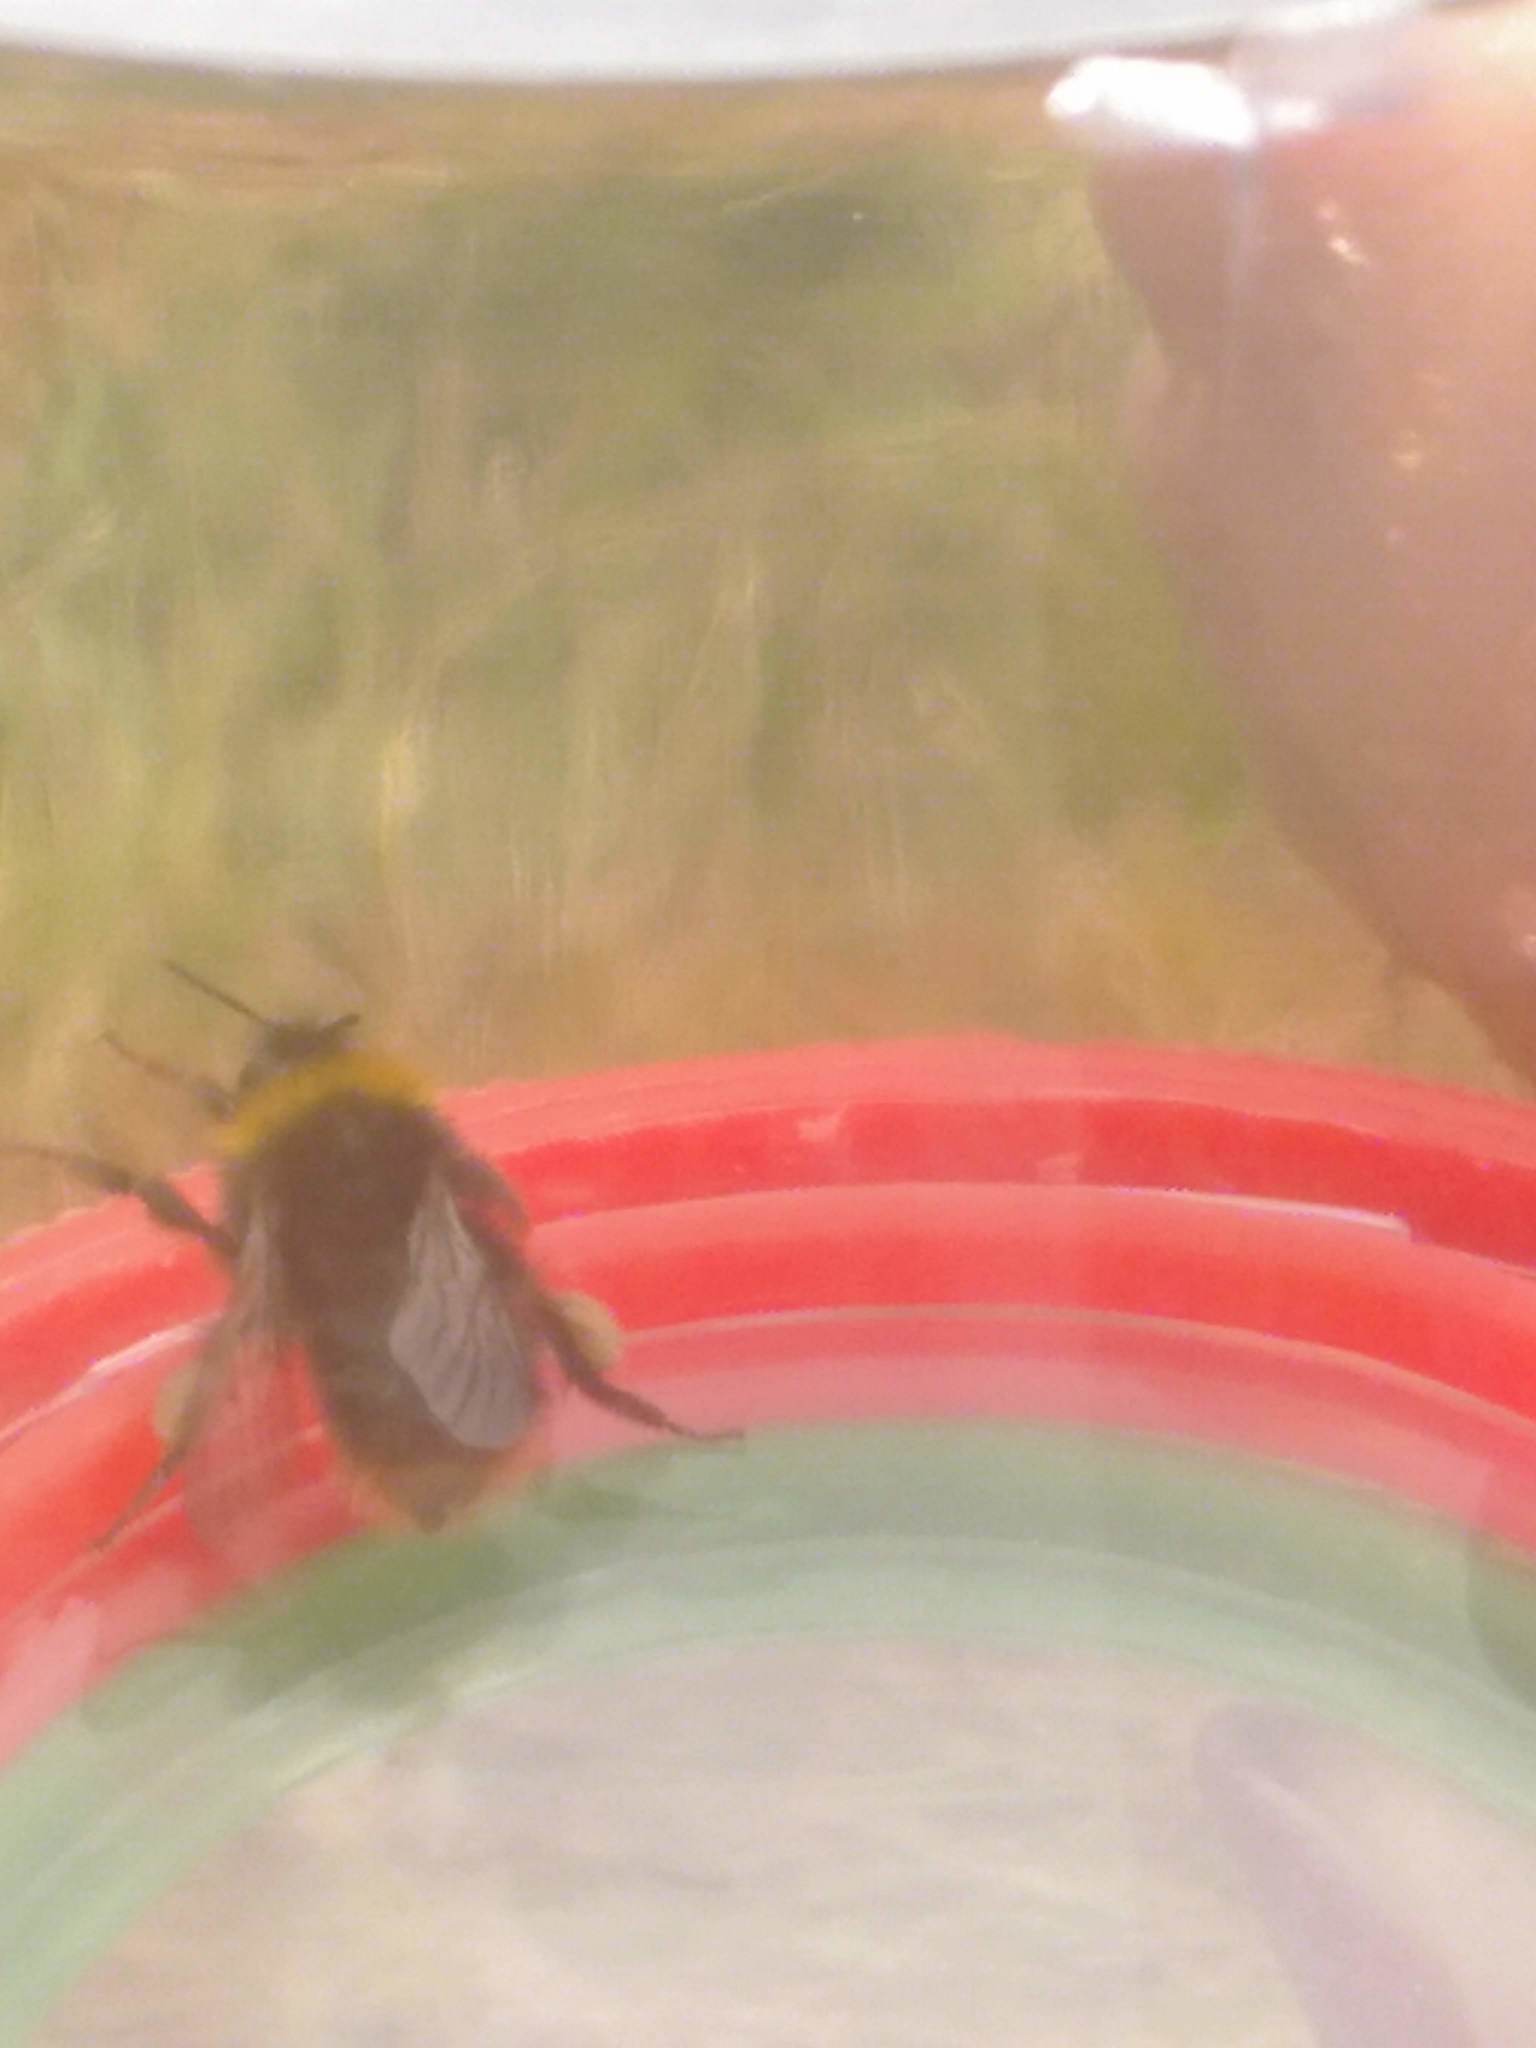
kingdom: Animalia
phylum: Arthropoda
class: Insecta
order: Hymenoptera
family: Apidae
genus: Bombus
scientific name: Bombus pratorum
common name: Early humble-bee
